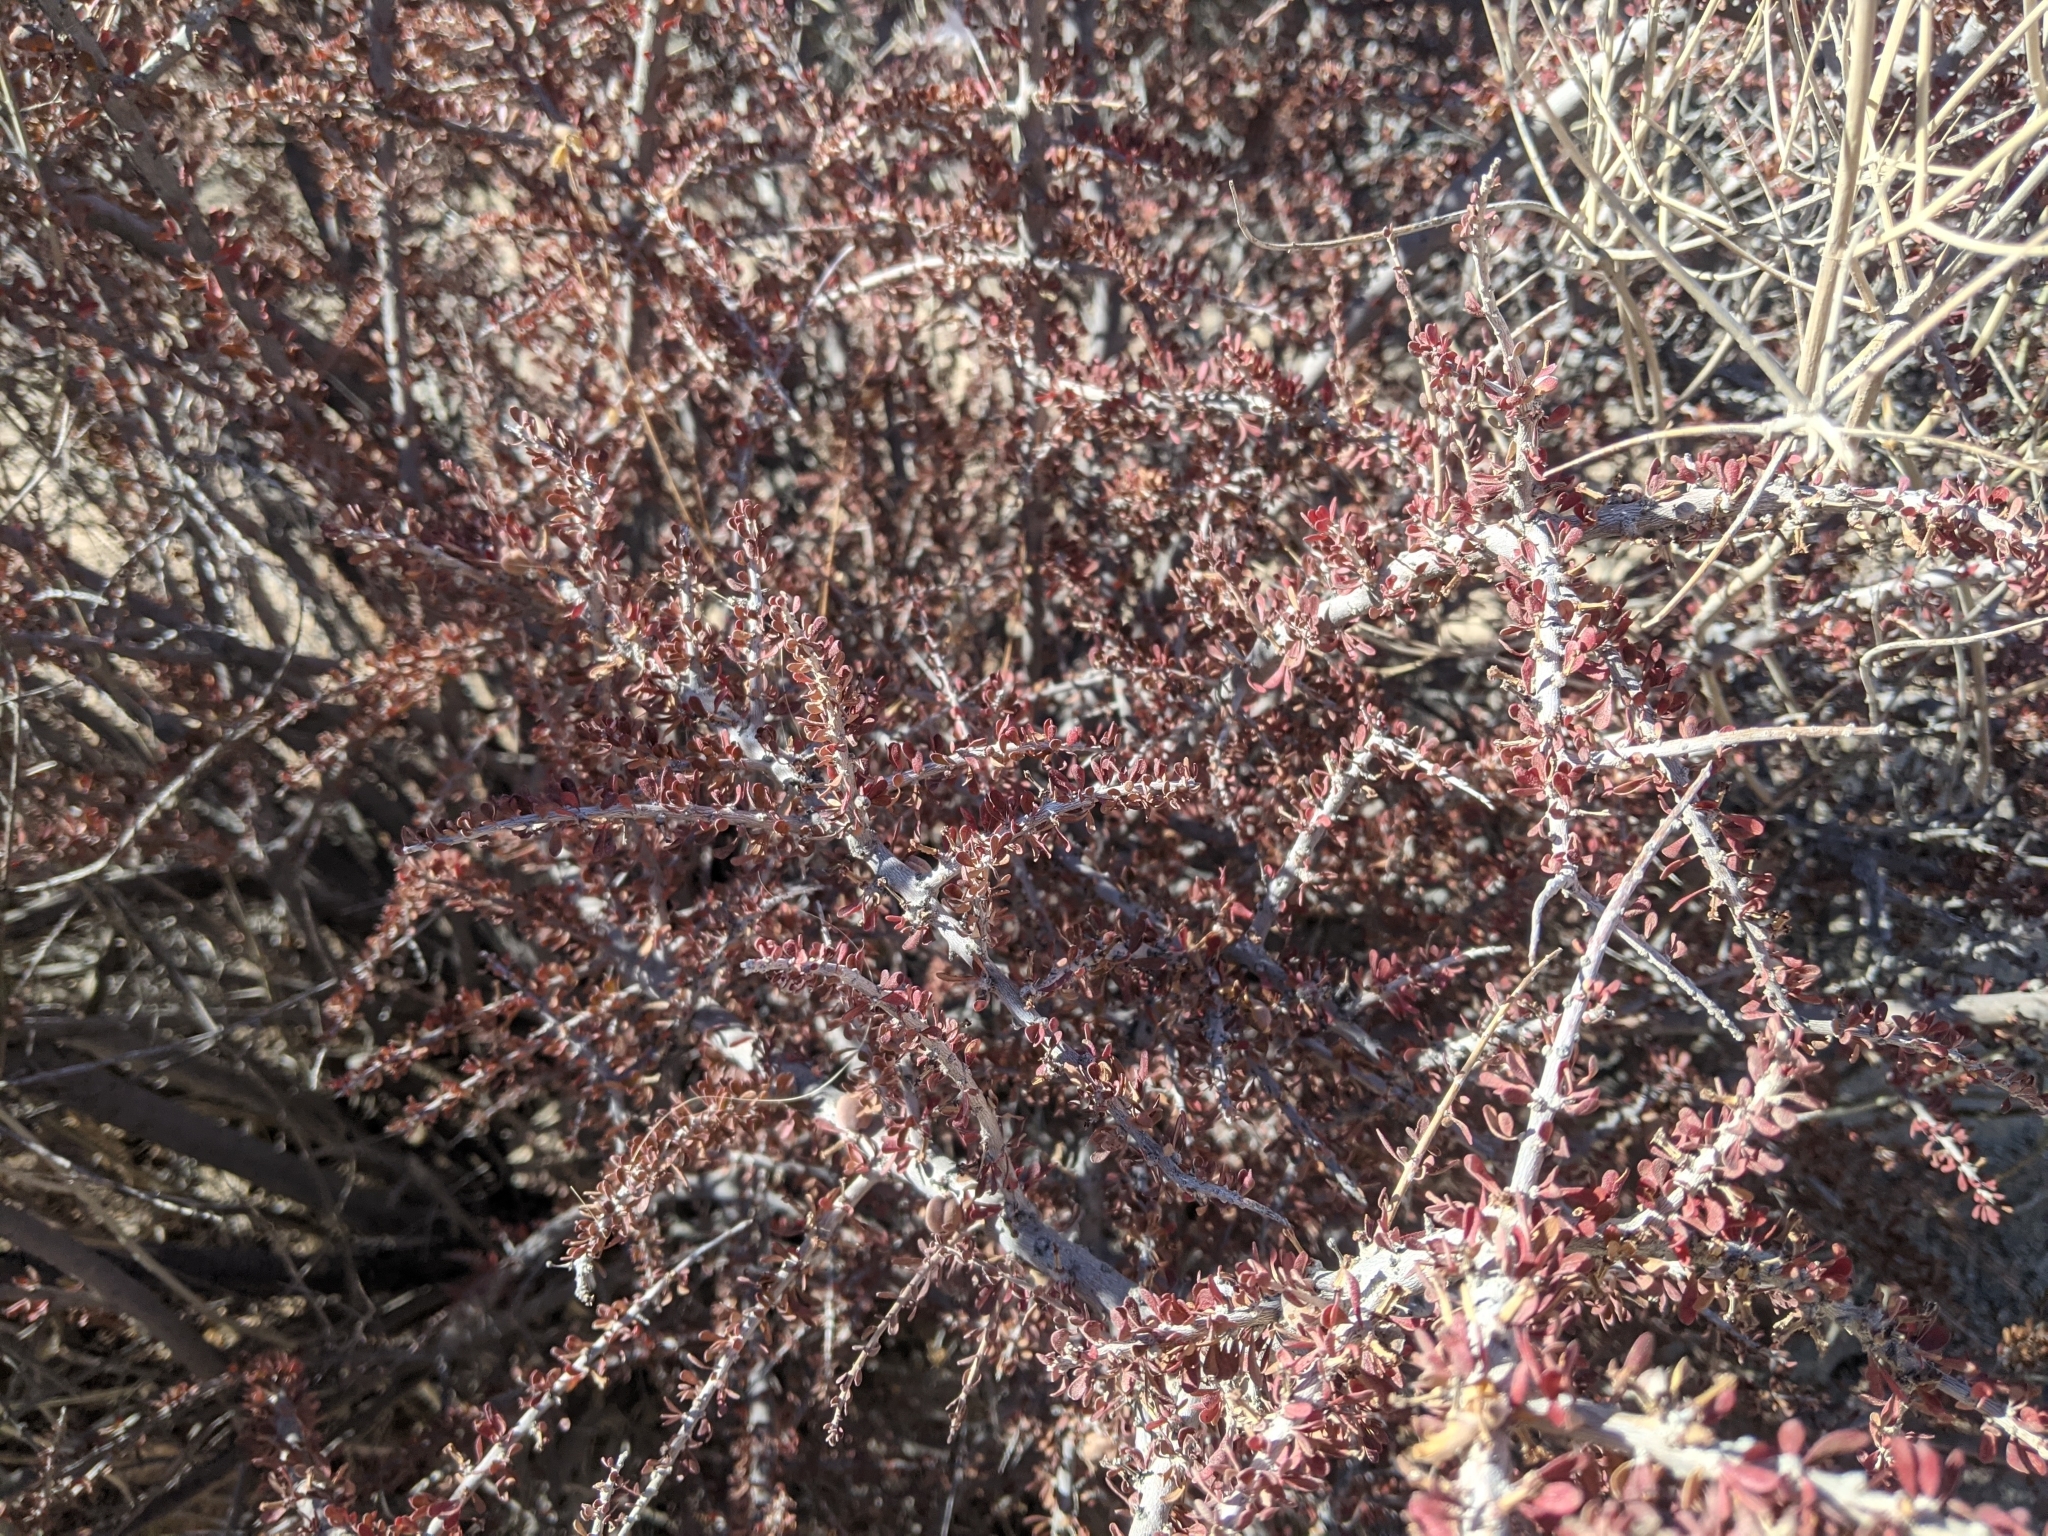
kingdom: Plantae
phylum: Tracheophyta
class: Magnoliopsida
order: Malpighiales
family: Picrodendraceae
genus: Tetracoccus
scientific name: Tetracoccus hallii
